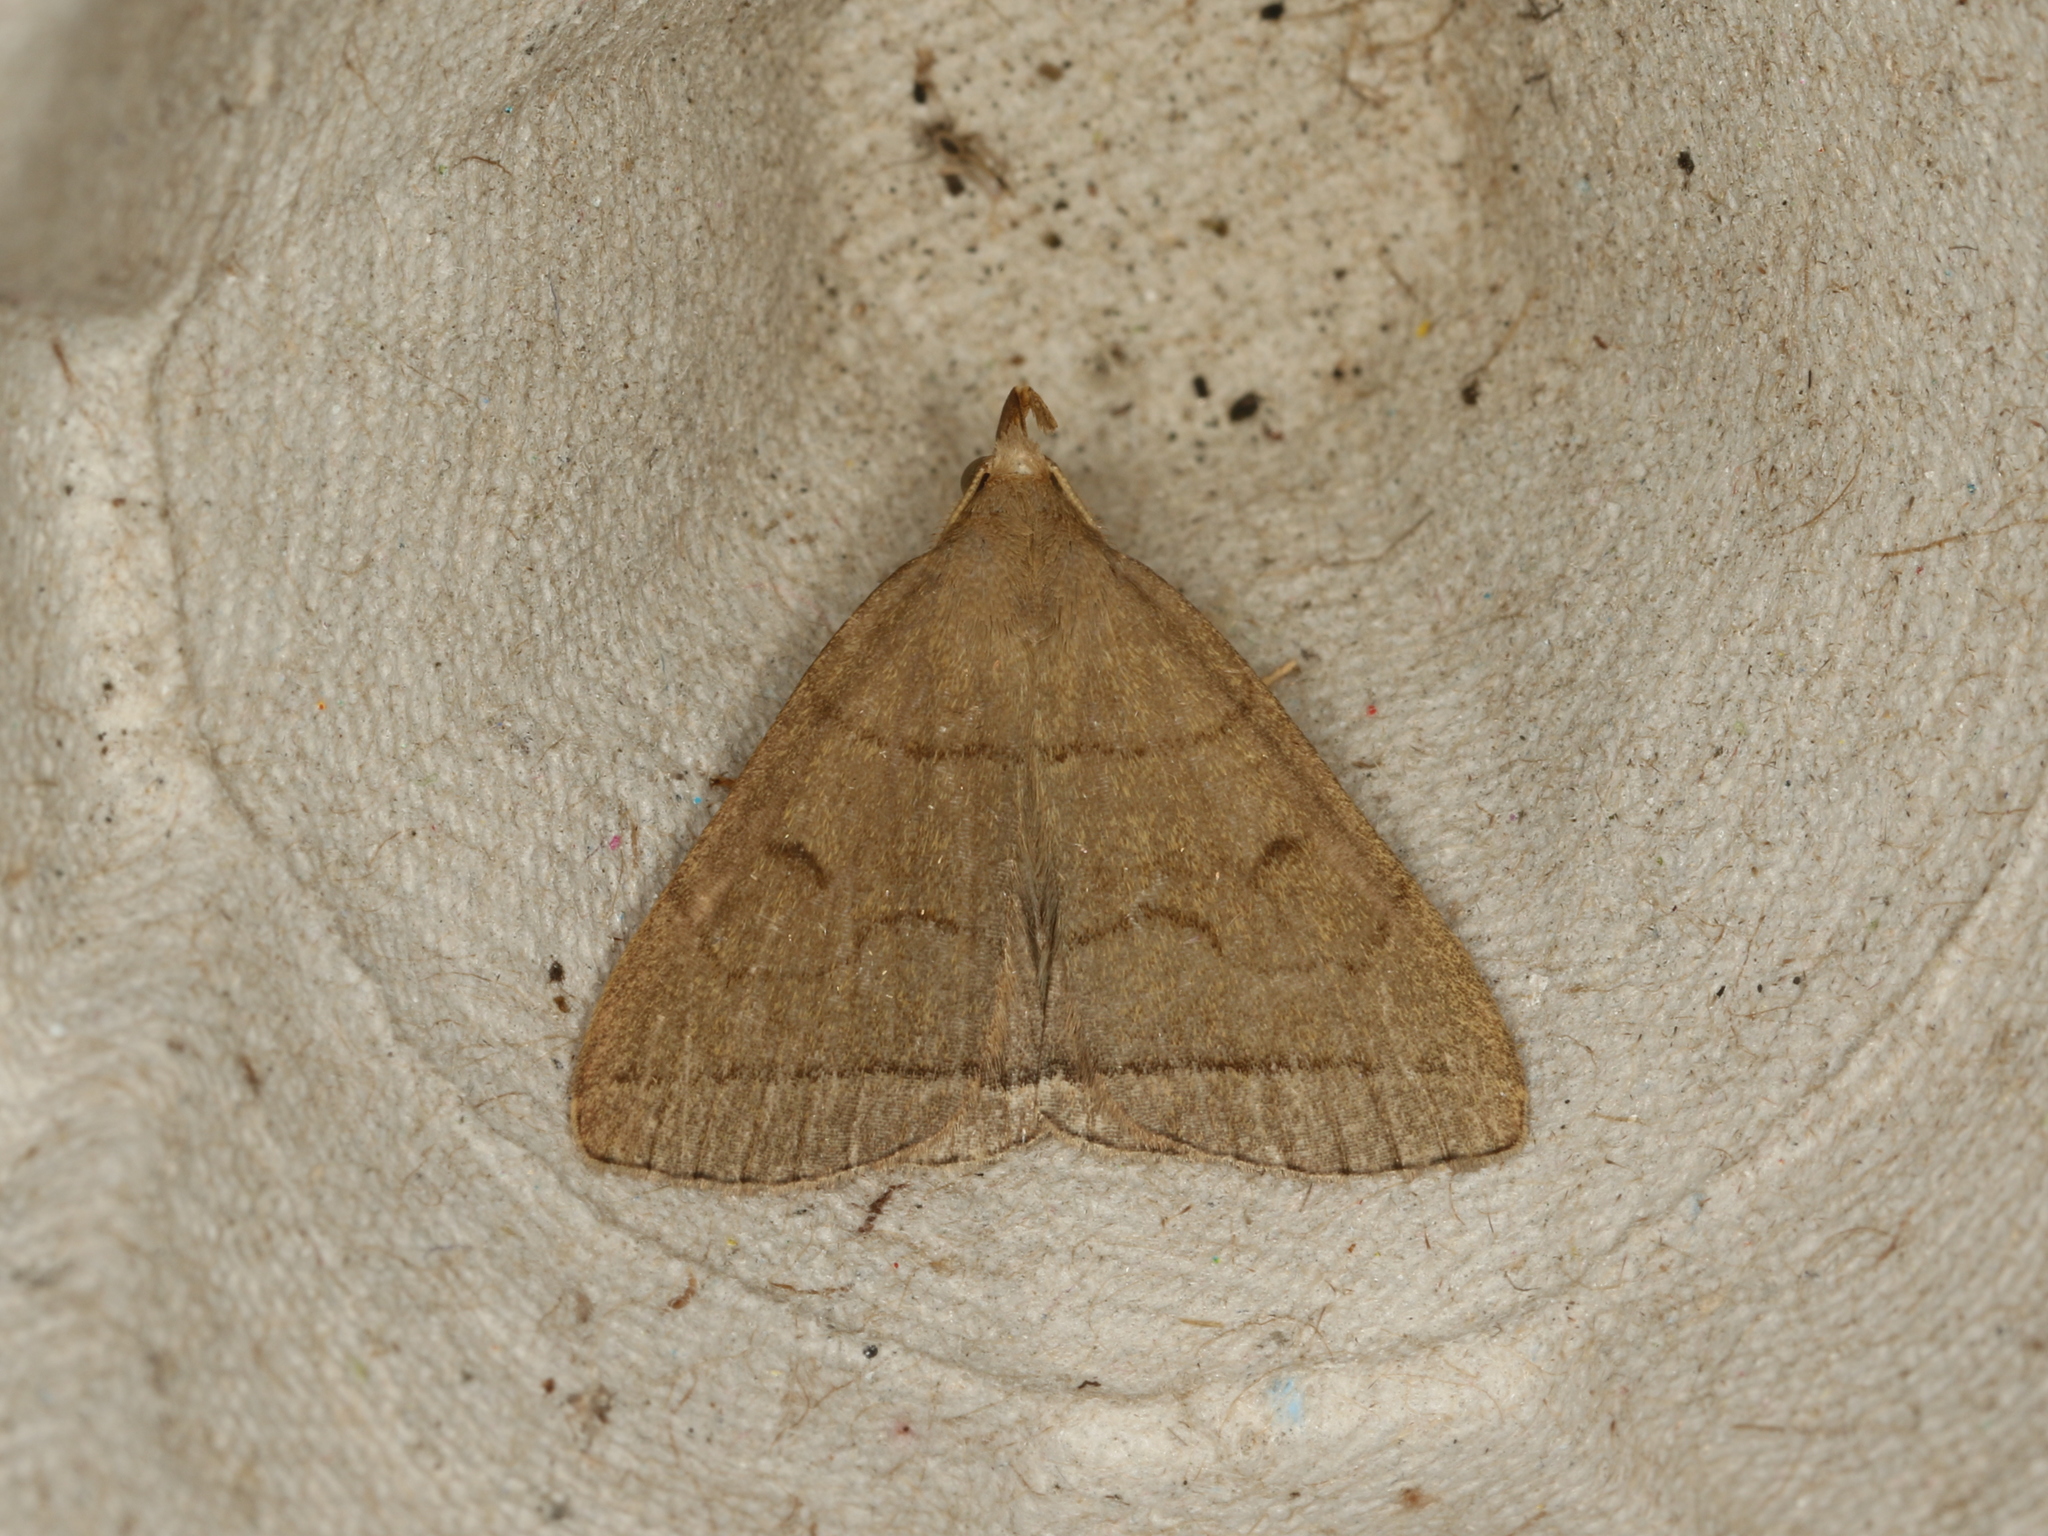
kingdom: Animalia
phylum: Arthropoda
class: Insecta
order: Lepidoptera
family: Erebidae
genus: Herminia
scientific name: Herminia tarsipennalis
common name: Fan-foot
